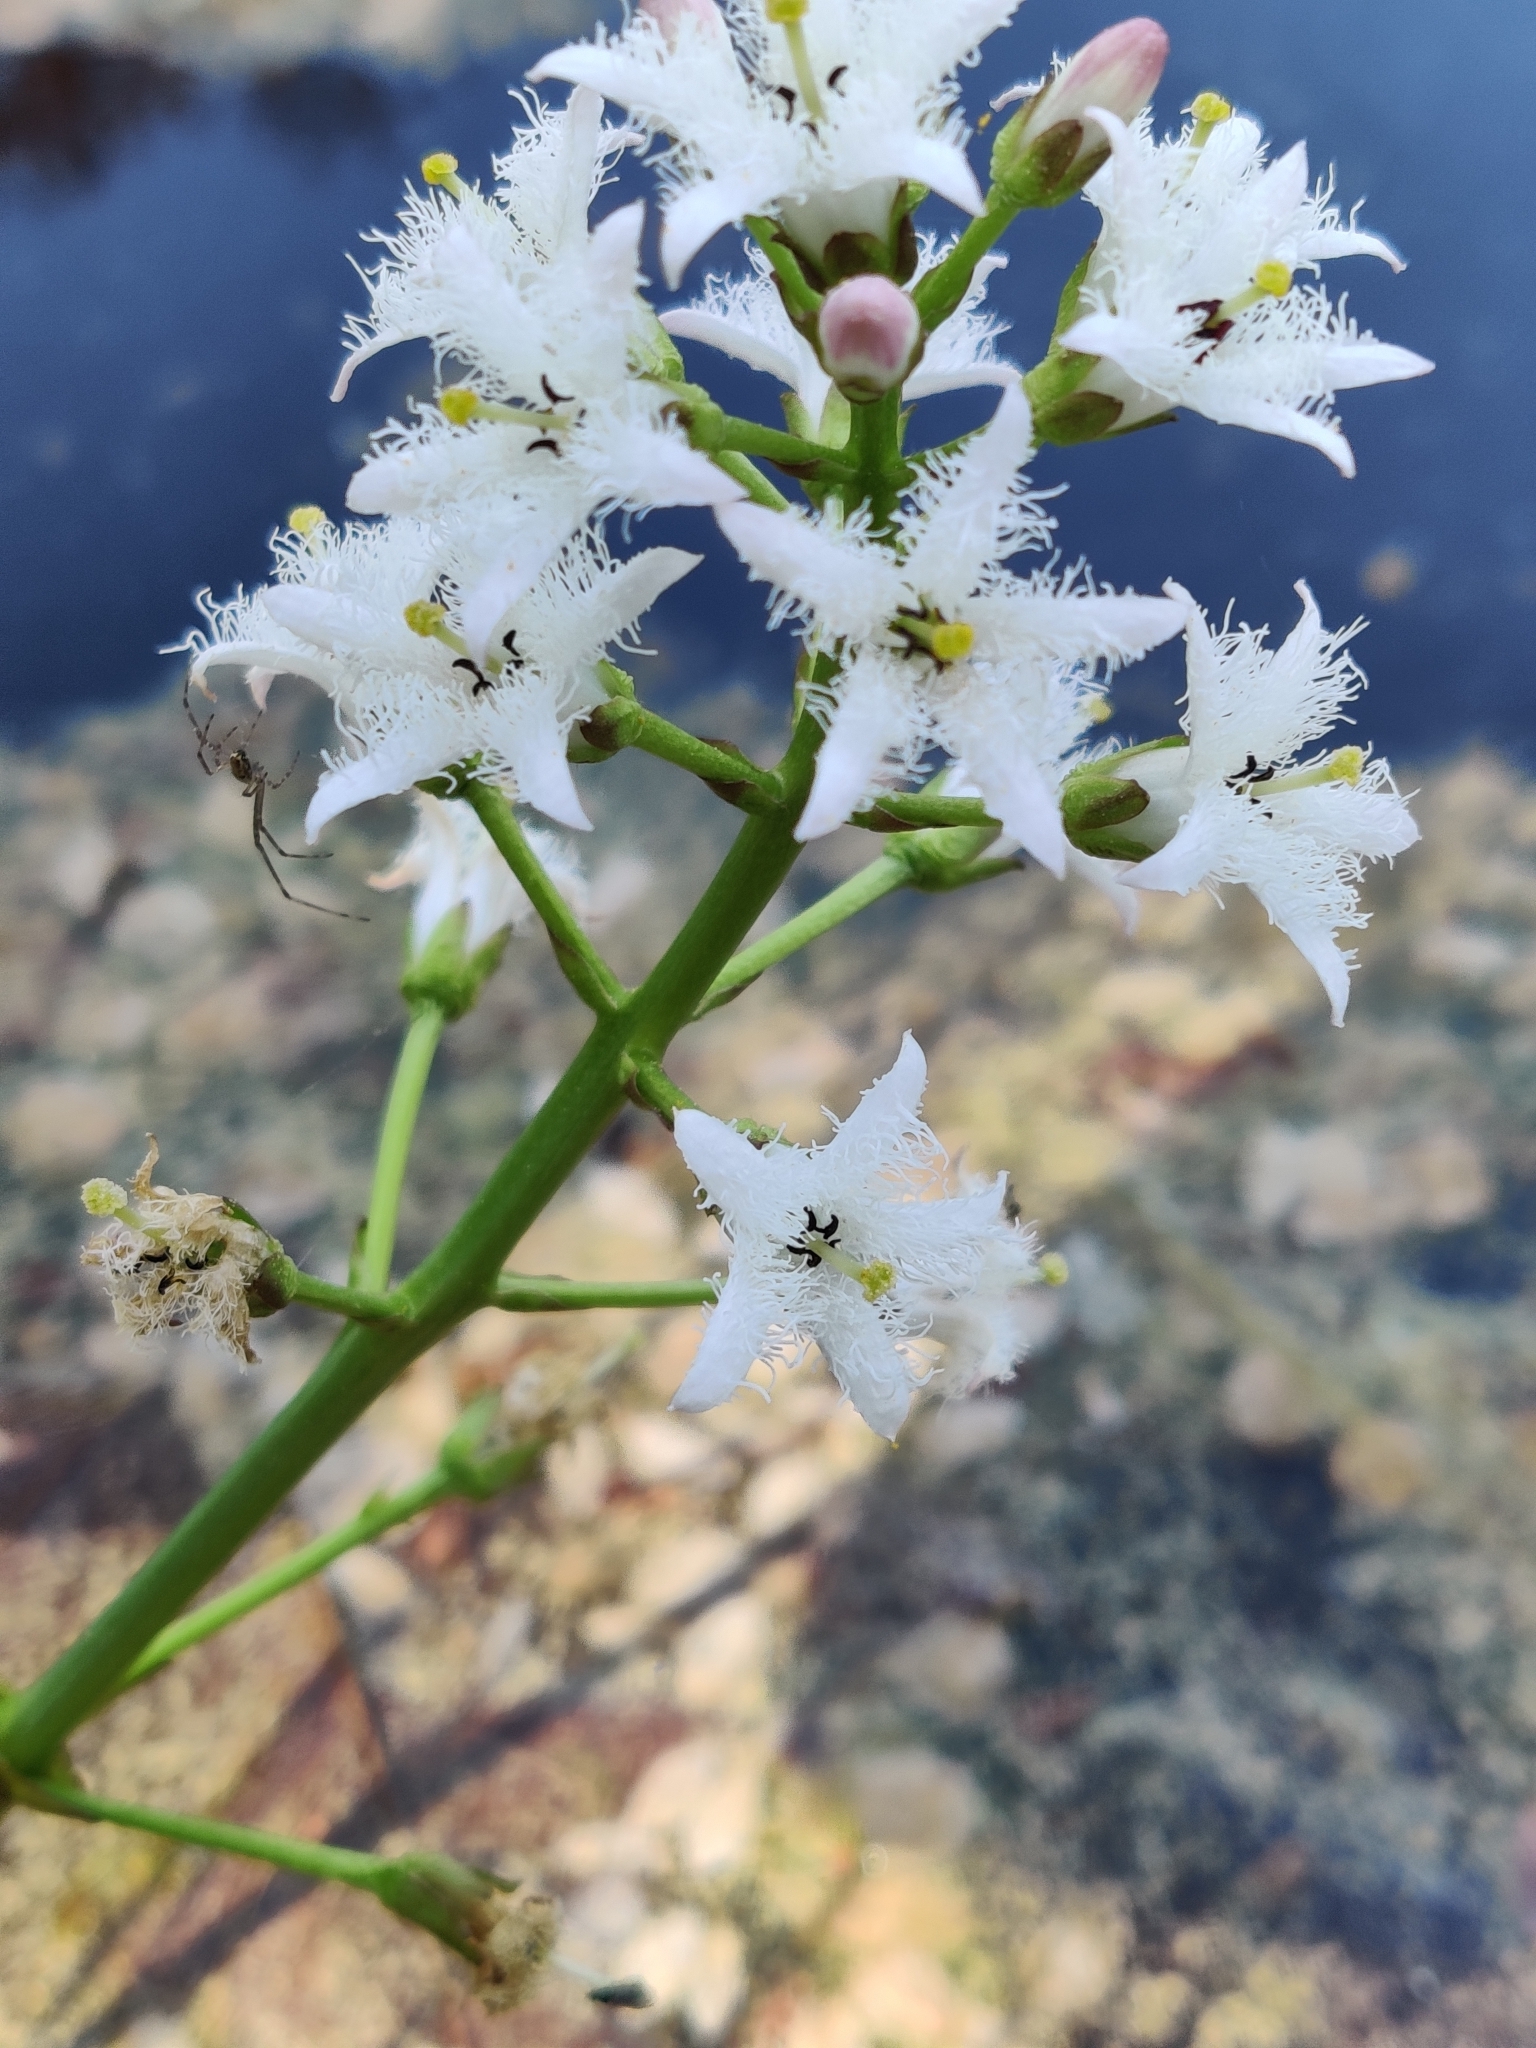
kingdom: Plantae
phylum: Tracheophyta
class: Magnoliopsida
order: Asterales
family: Menyanthaceae
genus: Menyanthes
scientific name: Menyanthes trifoliata
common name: Bogbean
